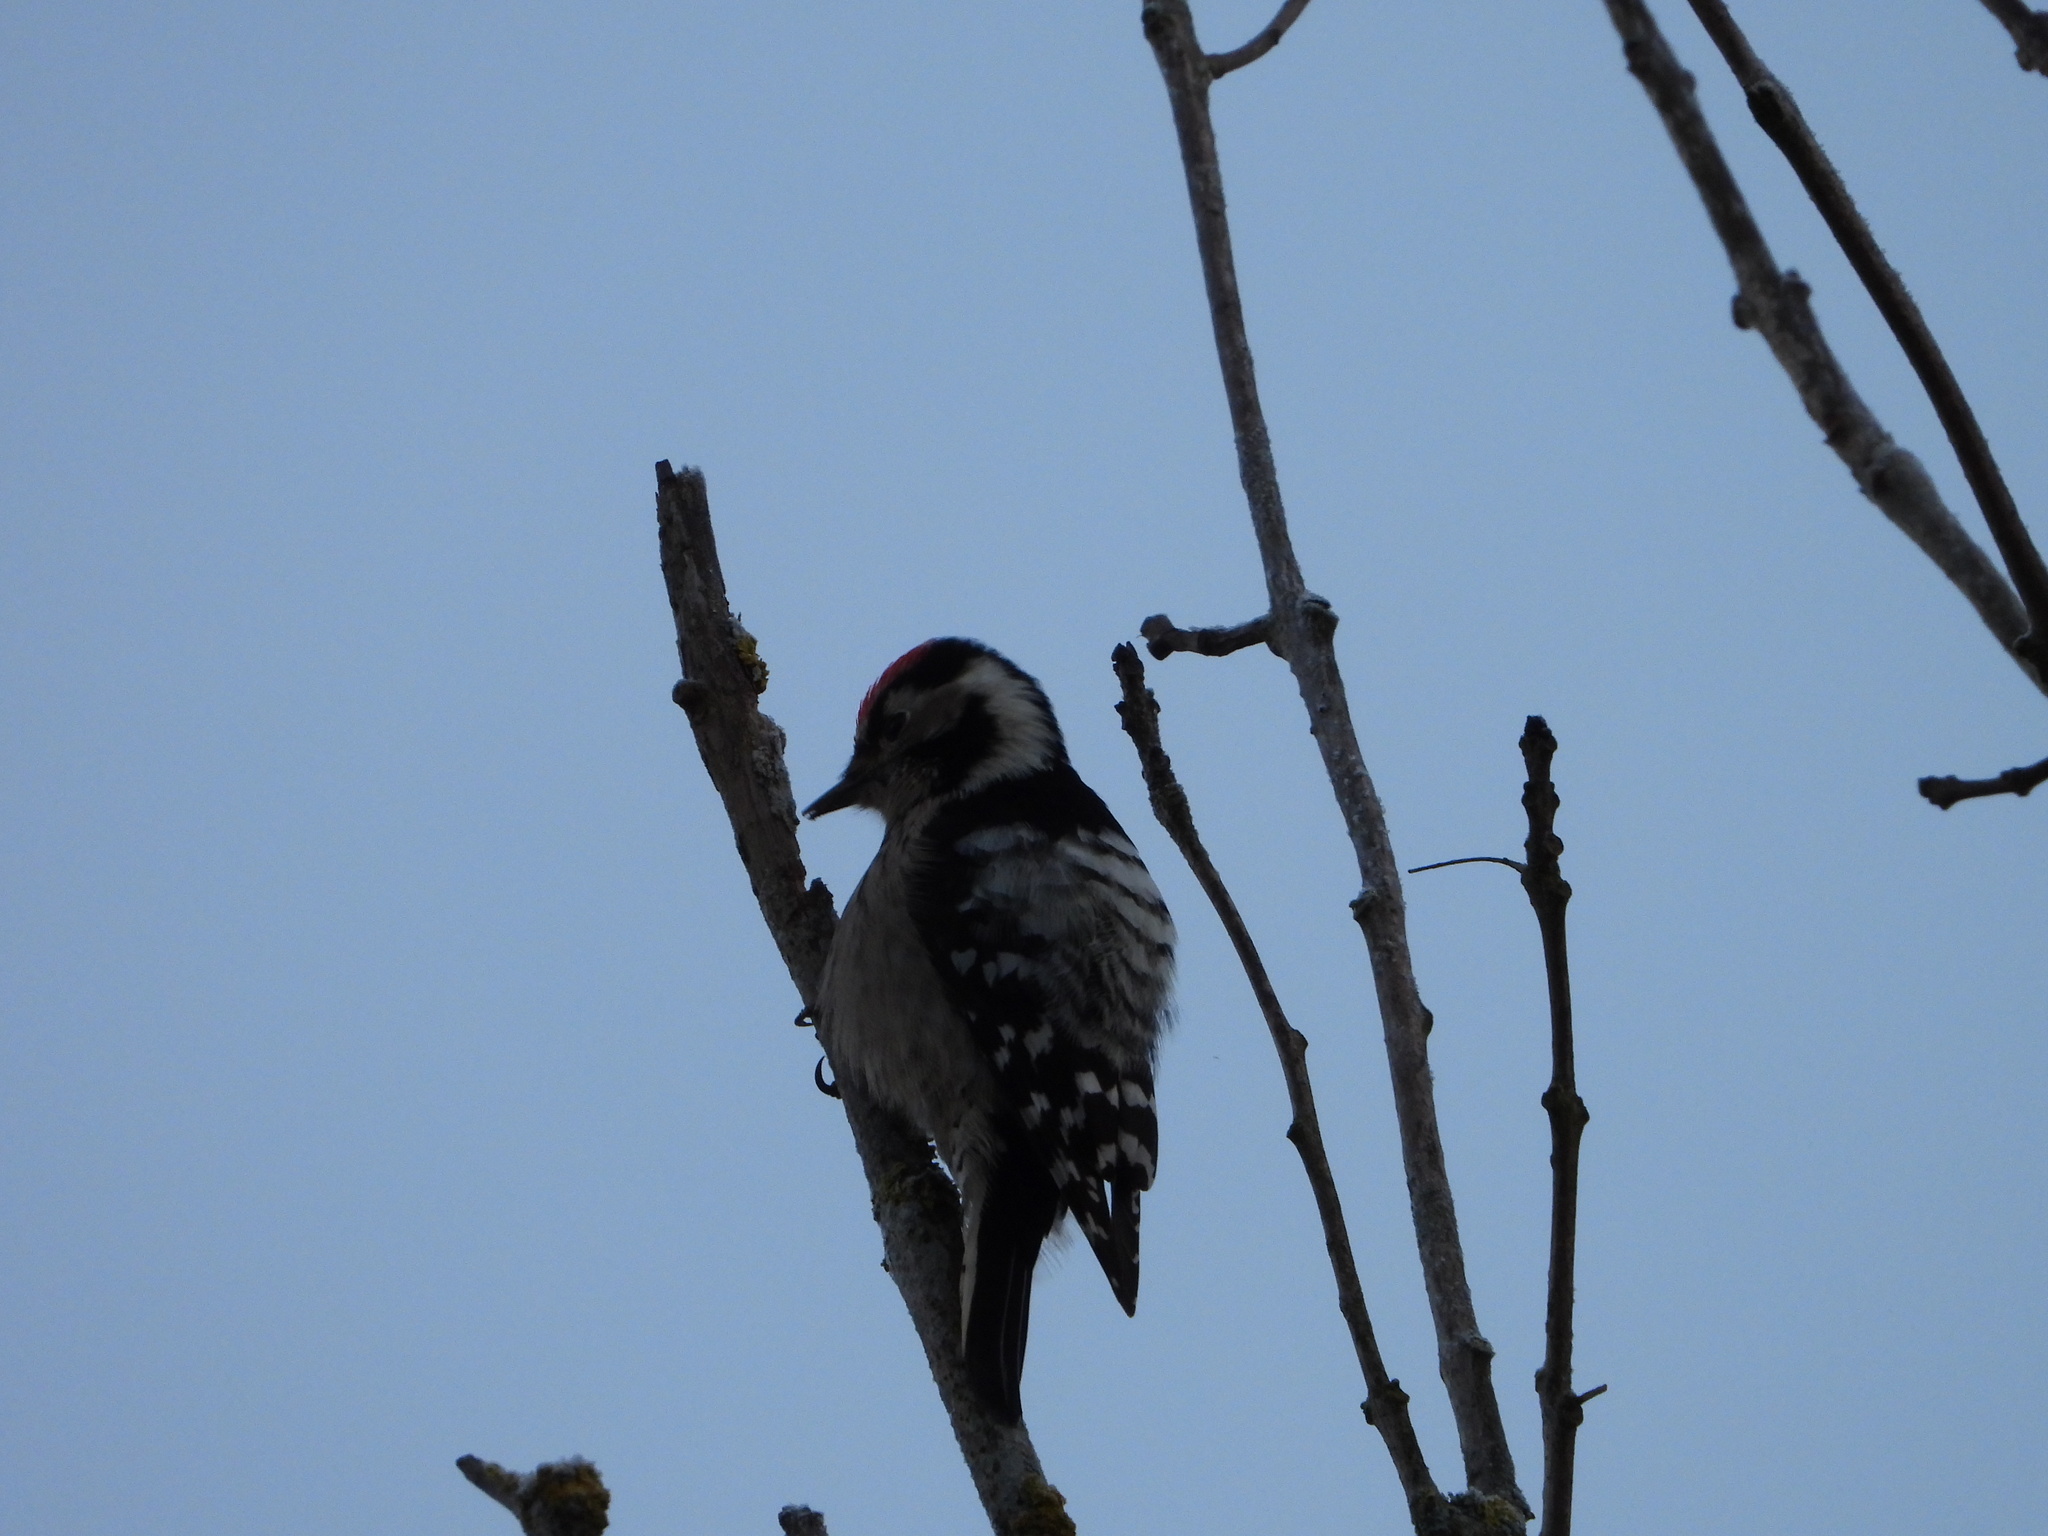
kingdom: Animalia
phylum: Chordata
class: Aves
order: Piciformes
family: Picidae
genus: Dryobates
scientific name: Dryobates minor
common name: Lesser spotted woodpecker
